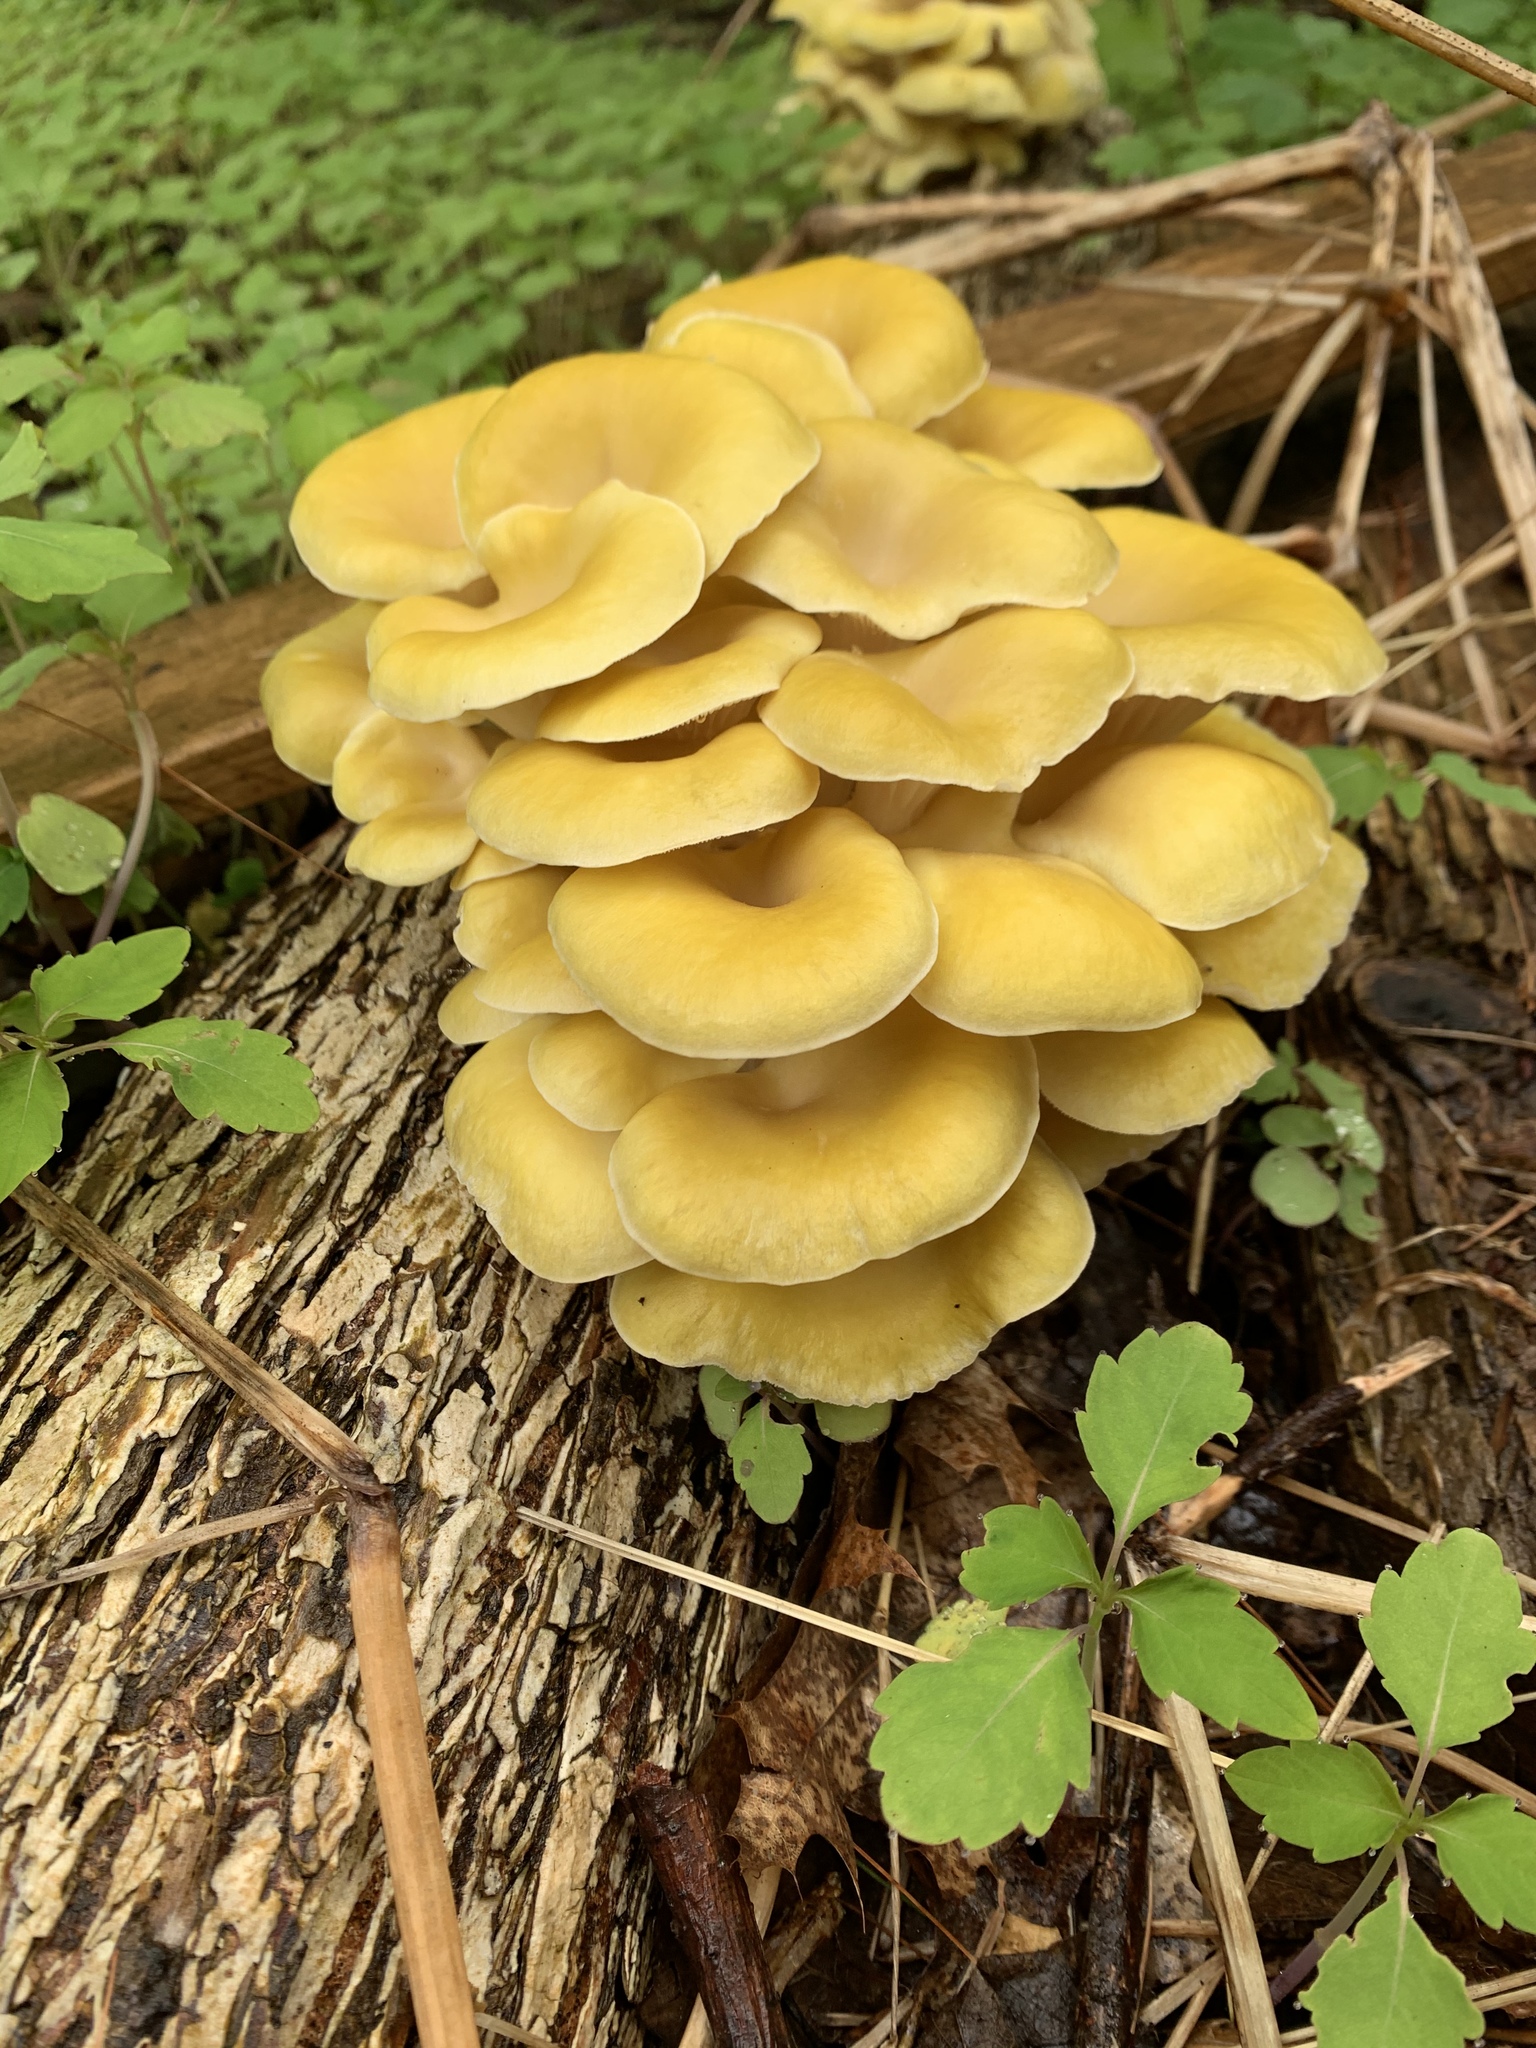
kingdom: Fungi
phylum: Basidiomycota
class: Agaricomycetes
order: Agaricales
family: Pleurotaceae
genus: Pleurotus
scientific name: Pleurotus citrinopileatus
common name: Golden oyster mushroom
